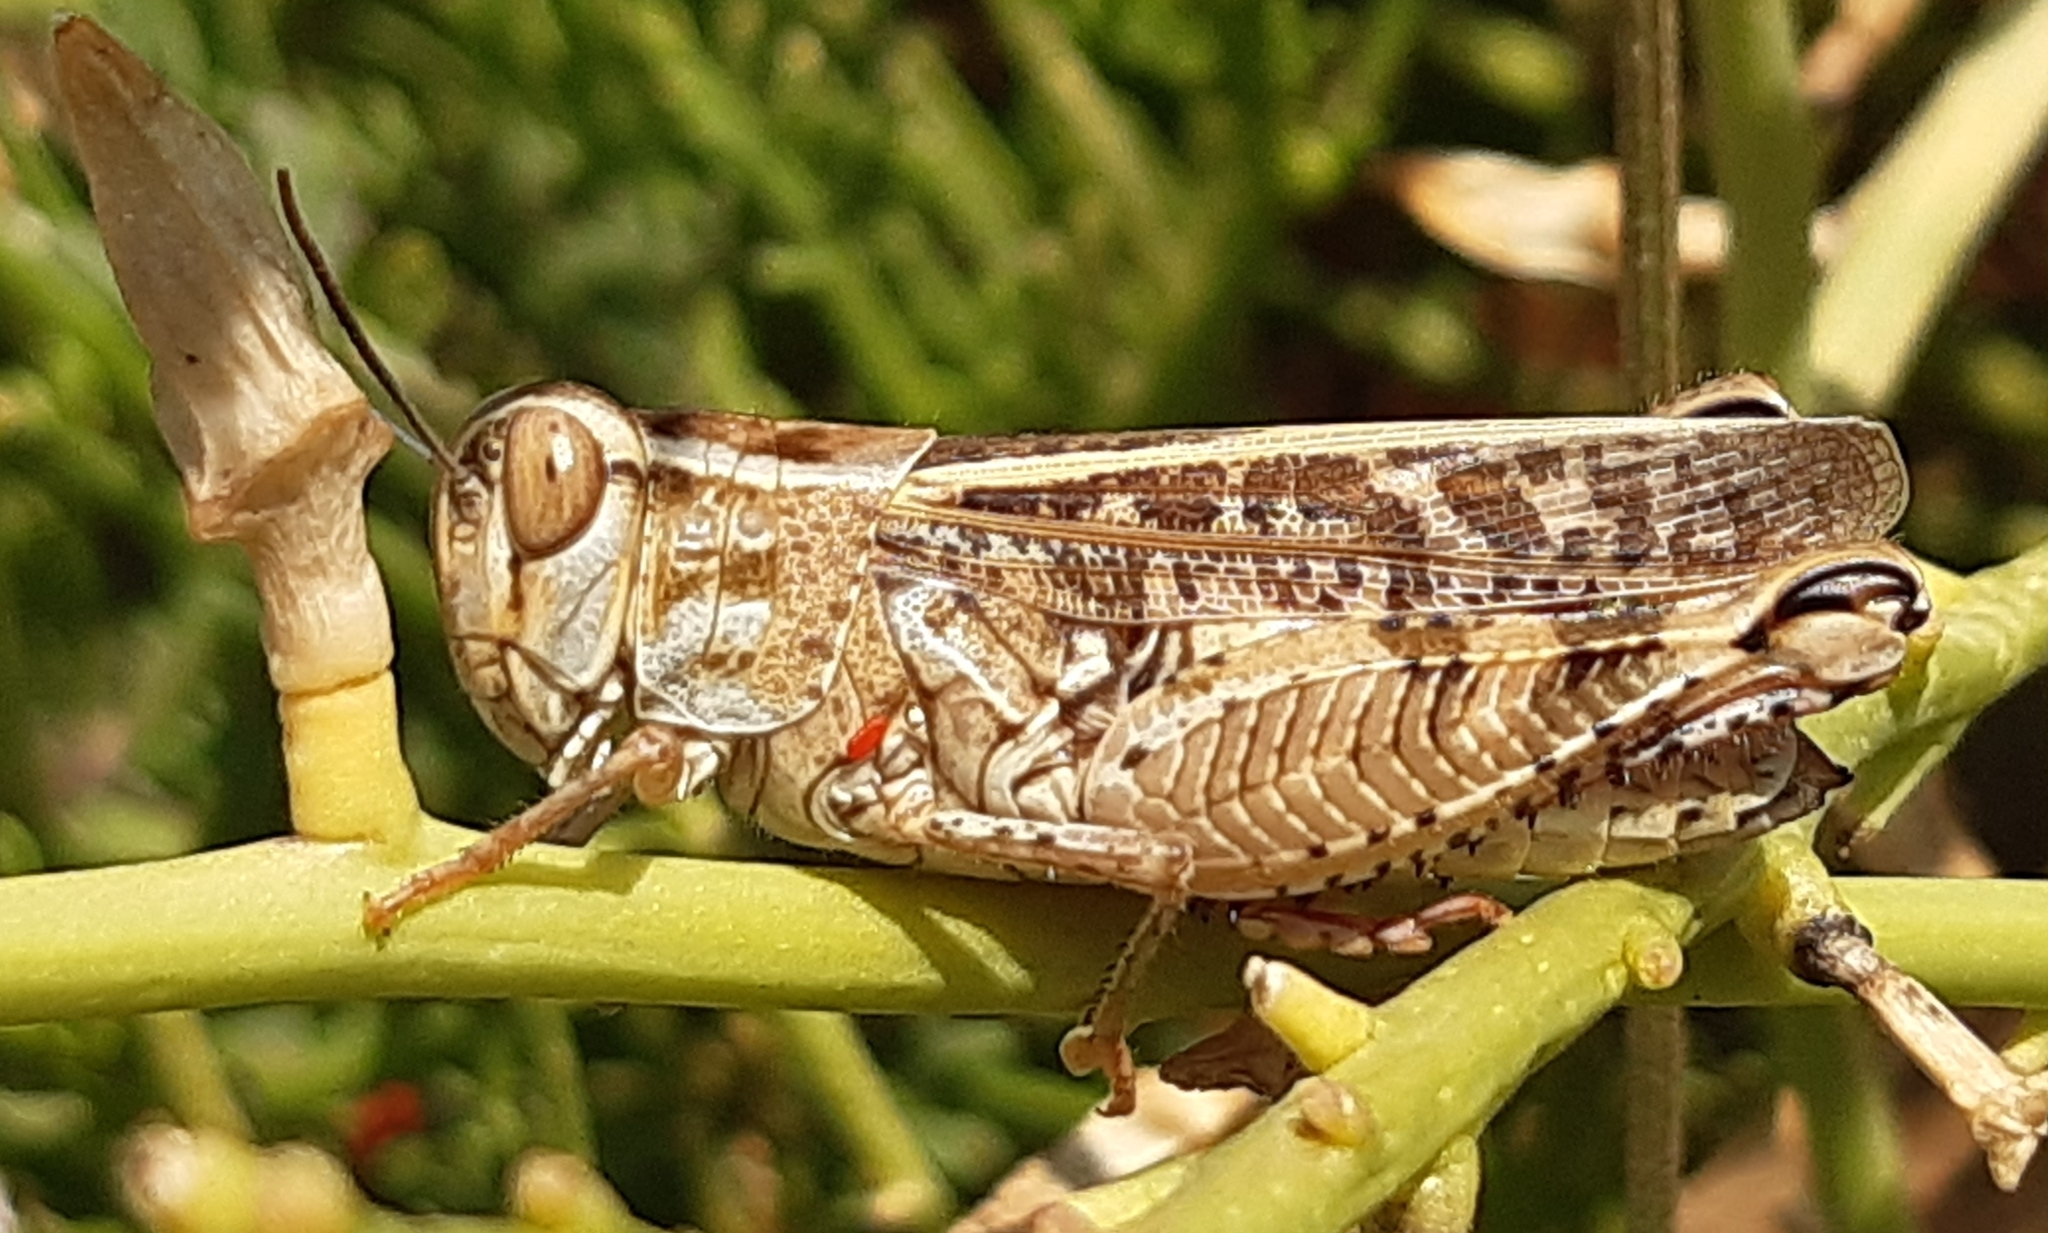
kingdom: Animalia
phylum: Arthropoda
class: Insecta
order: Orthoptera
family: Acrididae
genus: Calliptamus
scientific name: Calliptamus italicus
